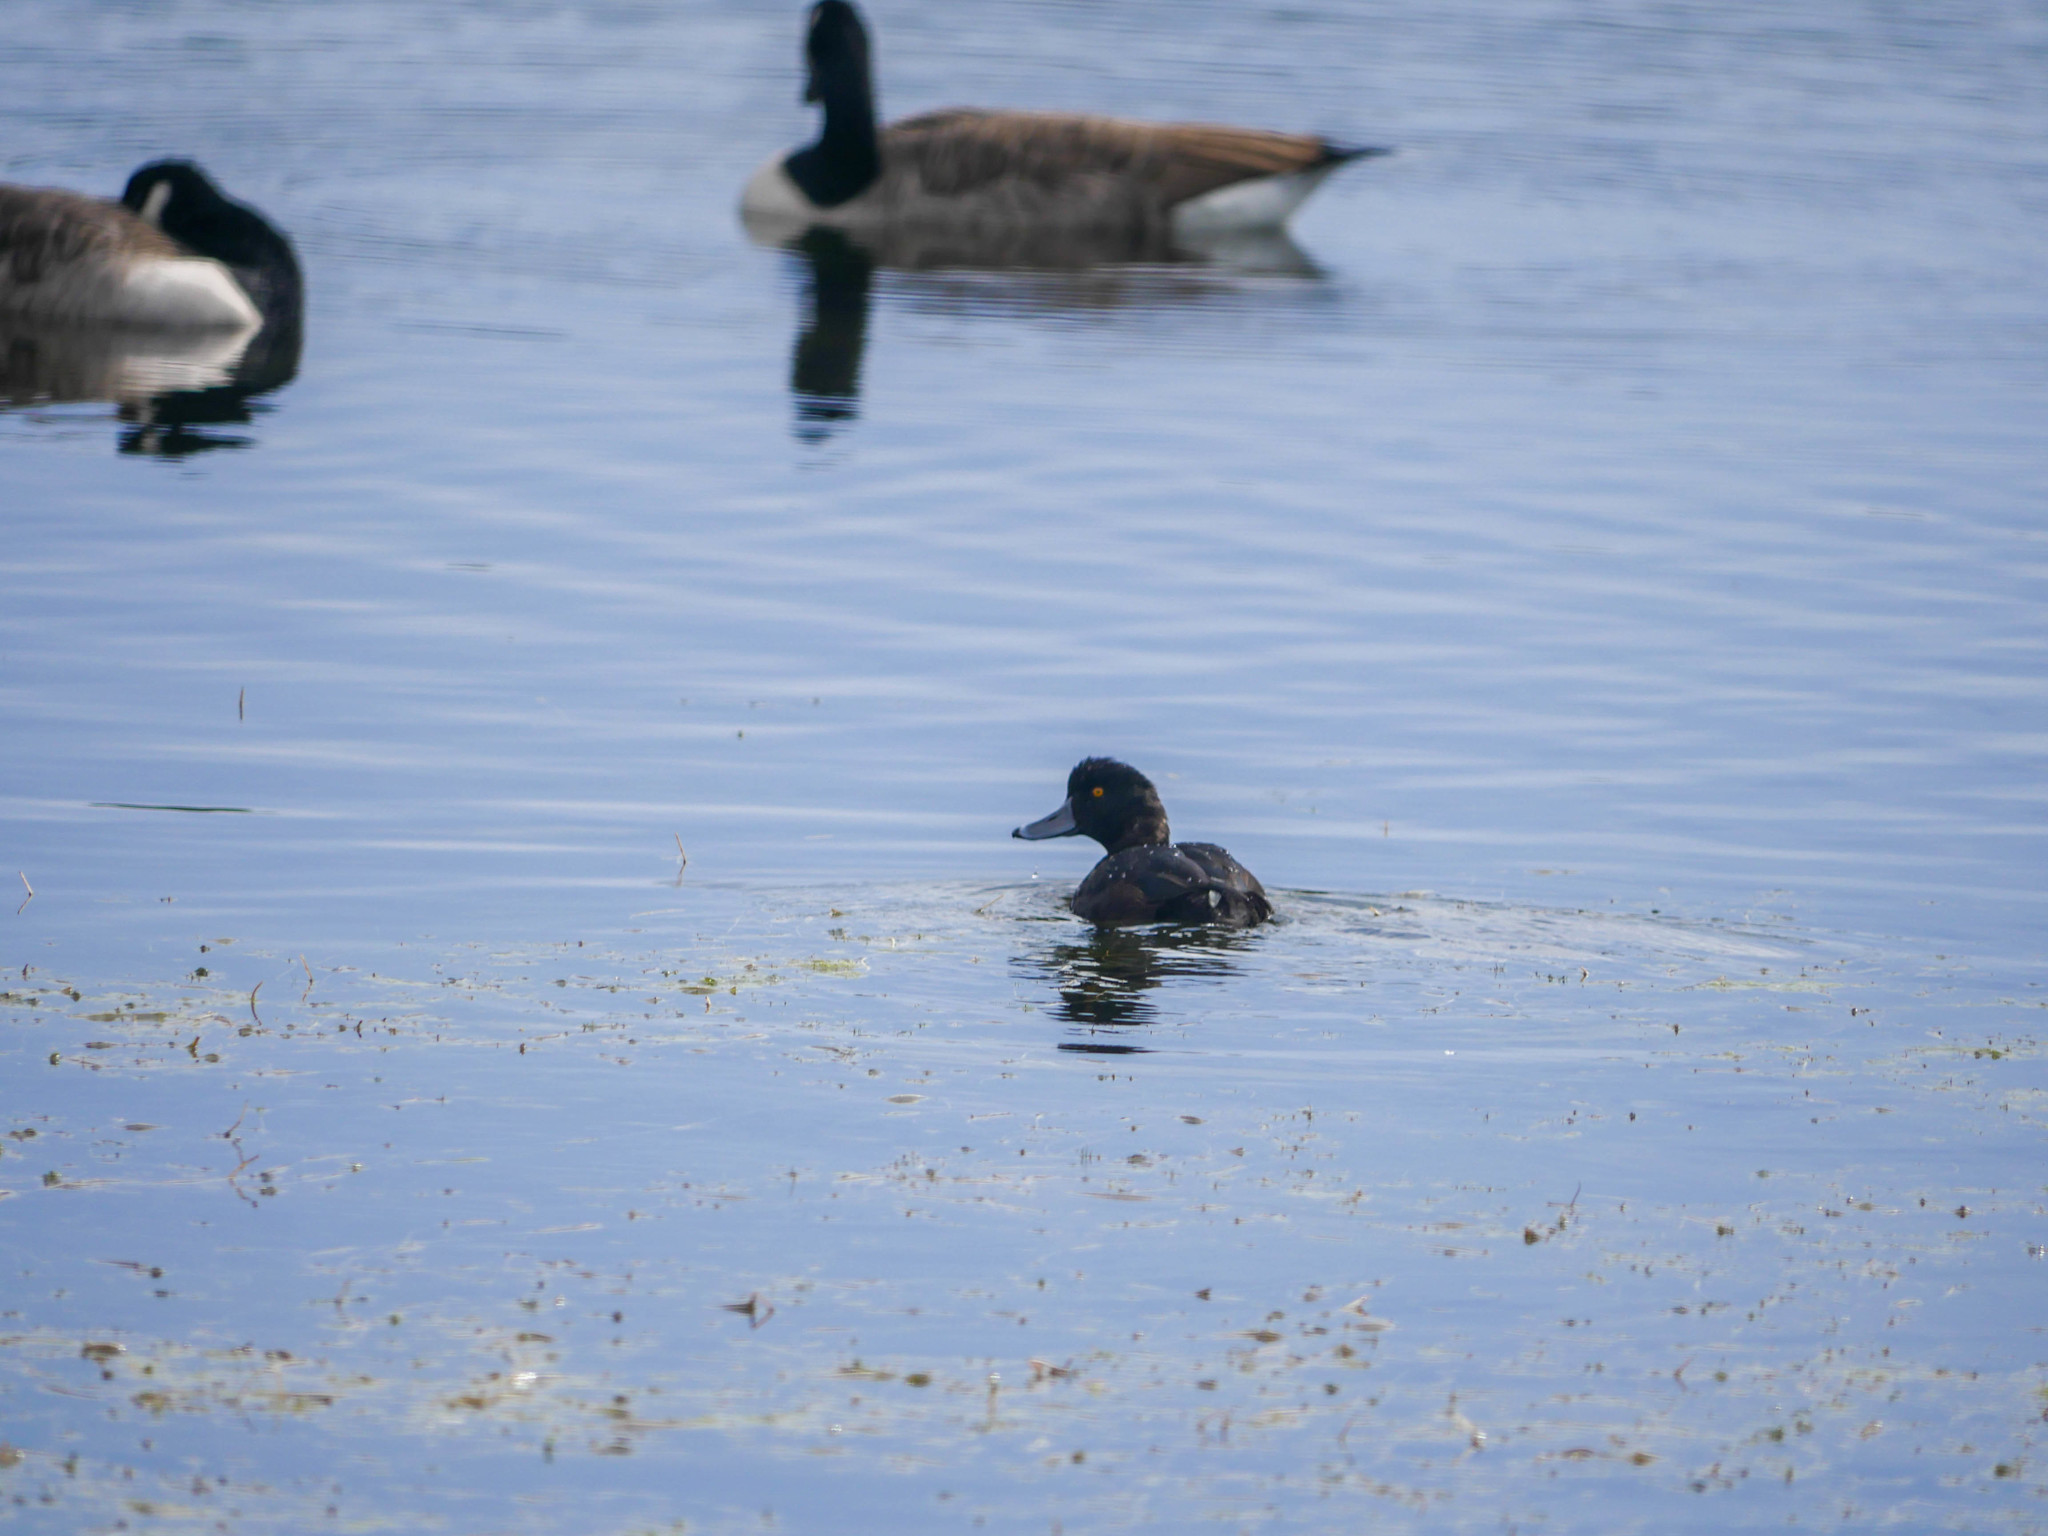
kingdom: Animalia
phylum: Chordata
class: Aves
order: Anseriformes
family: Anatidae
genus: Aythya
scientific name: Aythya novaeseelandiae
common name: New zealand scaup
